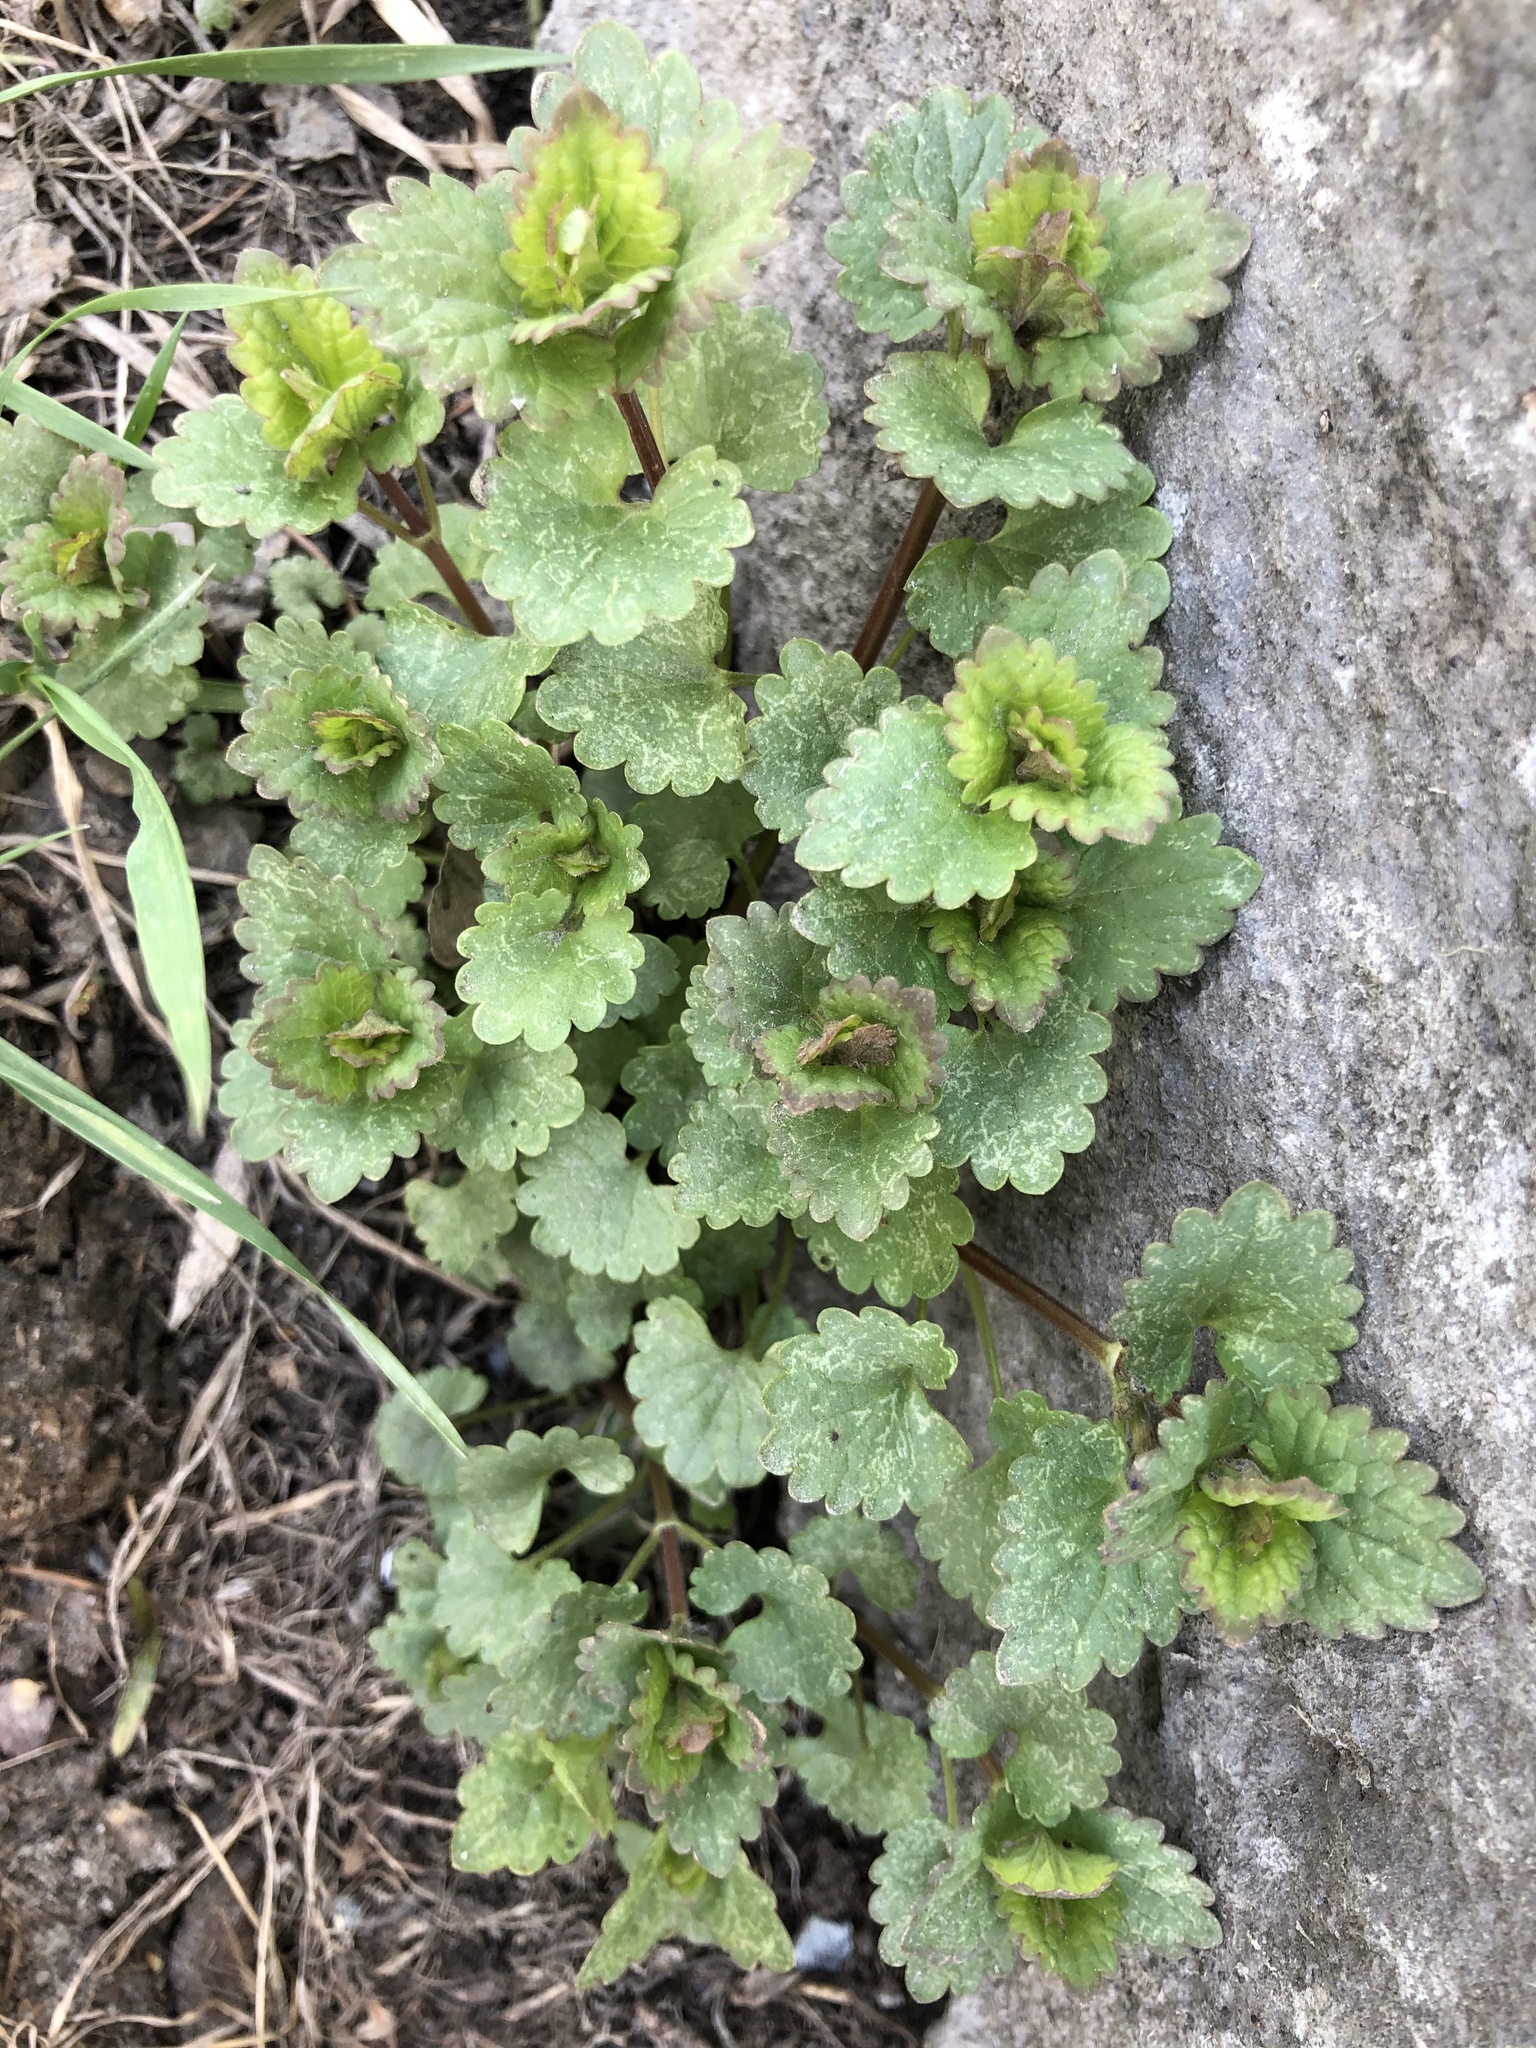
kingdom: Plantae
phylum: Tracheophyta
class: Magnoliopsida
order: Lamiales
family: Lamiaceae
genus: Glechoma
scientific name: Glechoma hederacea
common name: Ground ivy
